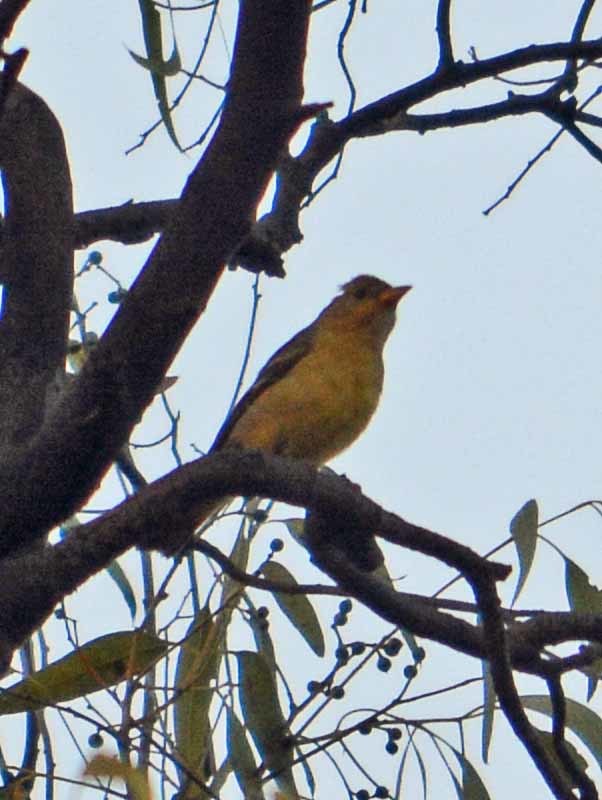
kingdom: Animalia
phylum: Chordata
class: Aves
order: Passeriformes
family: Cardinalidae
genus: Piranga
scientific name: Piranga ludoviciana
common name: Western tanager
